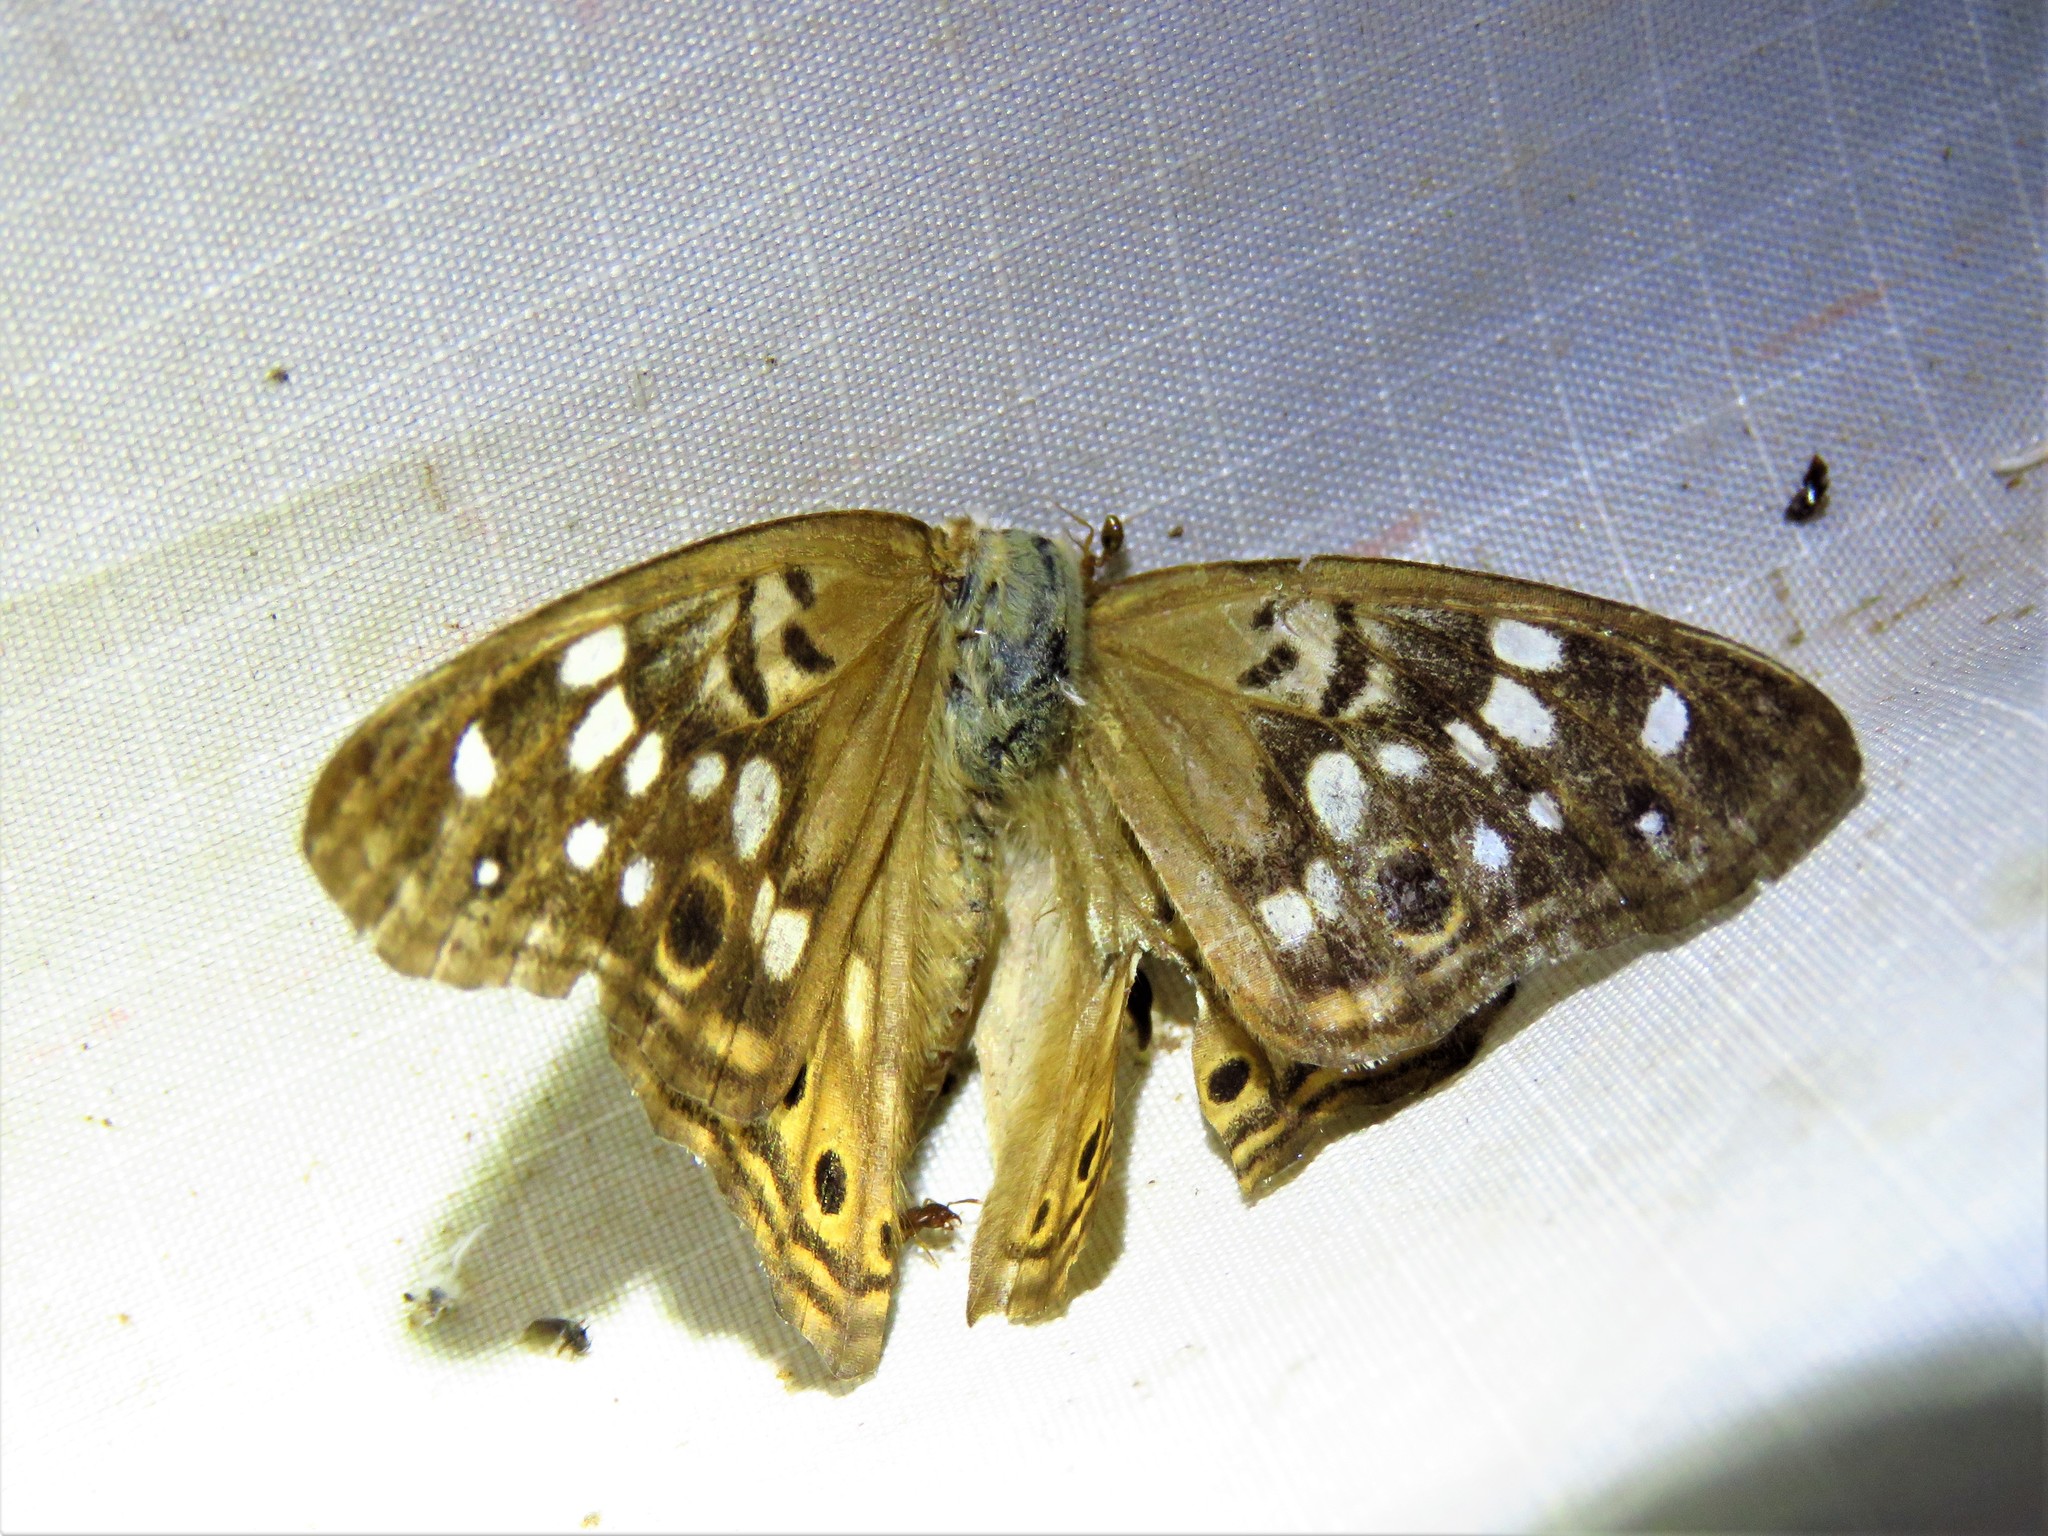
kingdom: Animalia
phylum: Arthropoda
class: Insecta
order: Lepidoptera
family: Nymphalidae
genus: Asterocampa
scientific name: Asterocampa celtis
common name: Hackberry emperor
